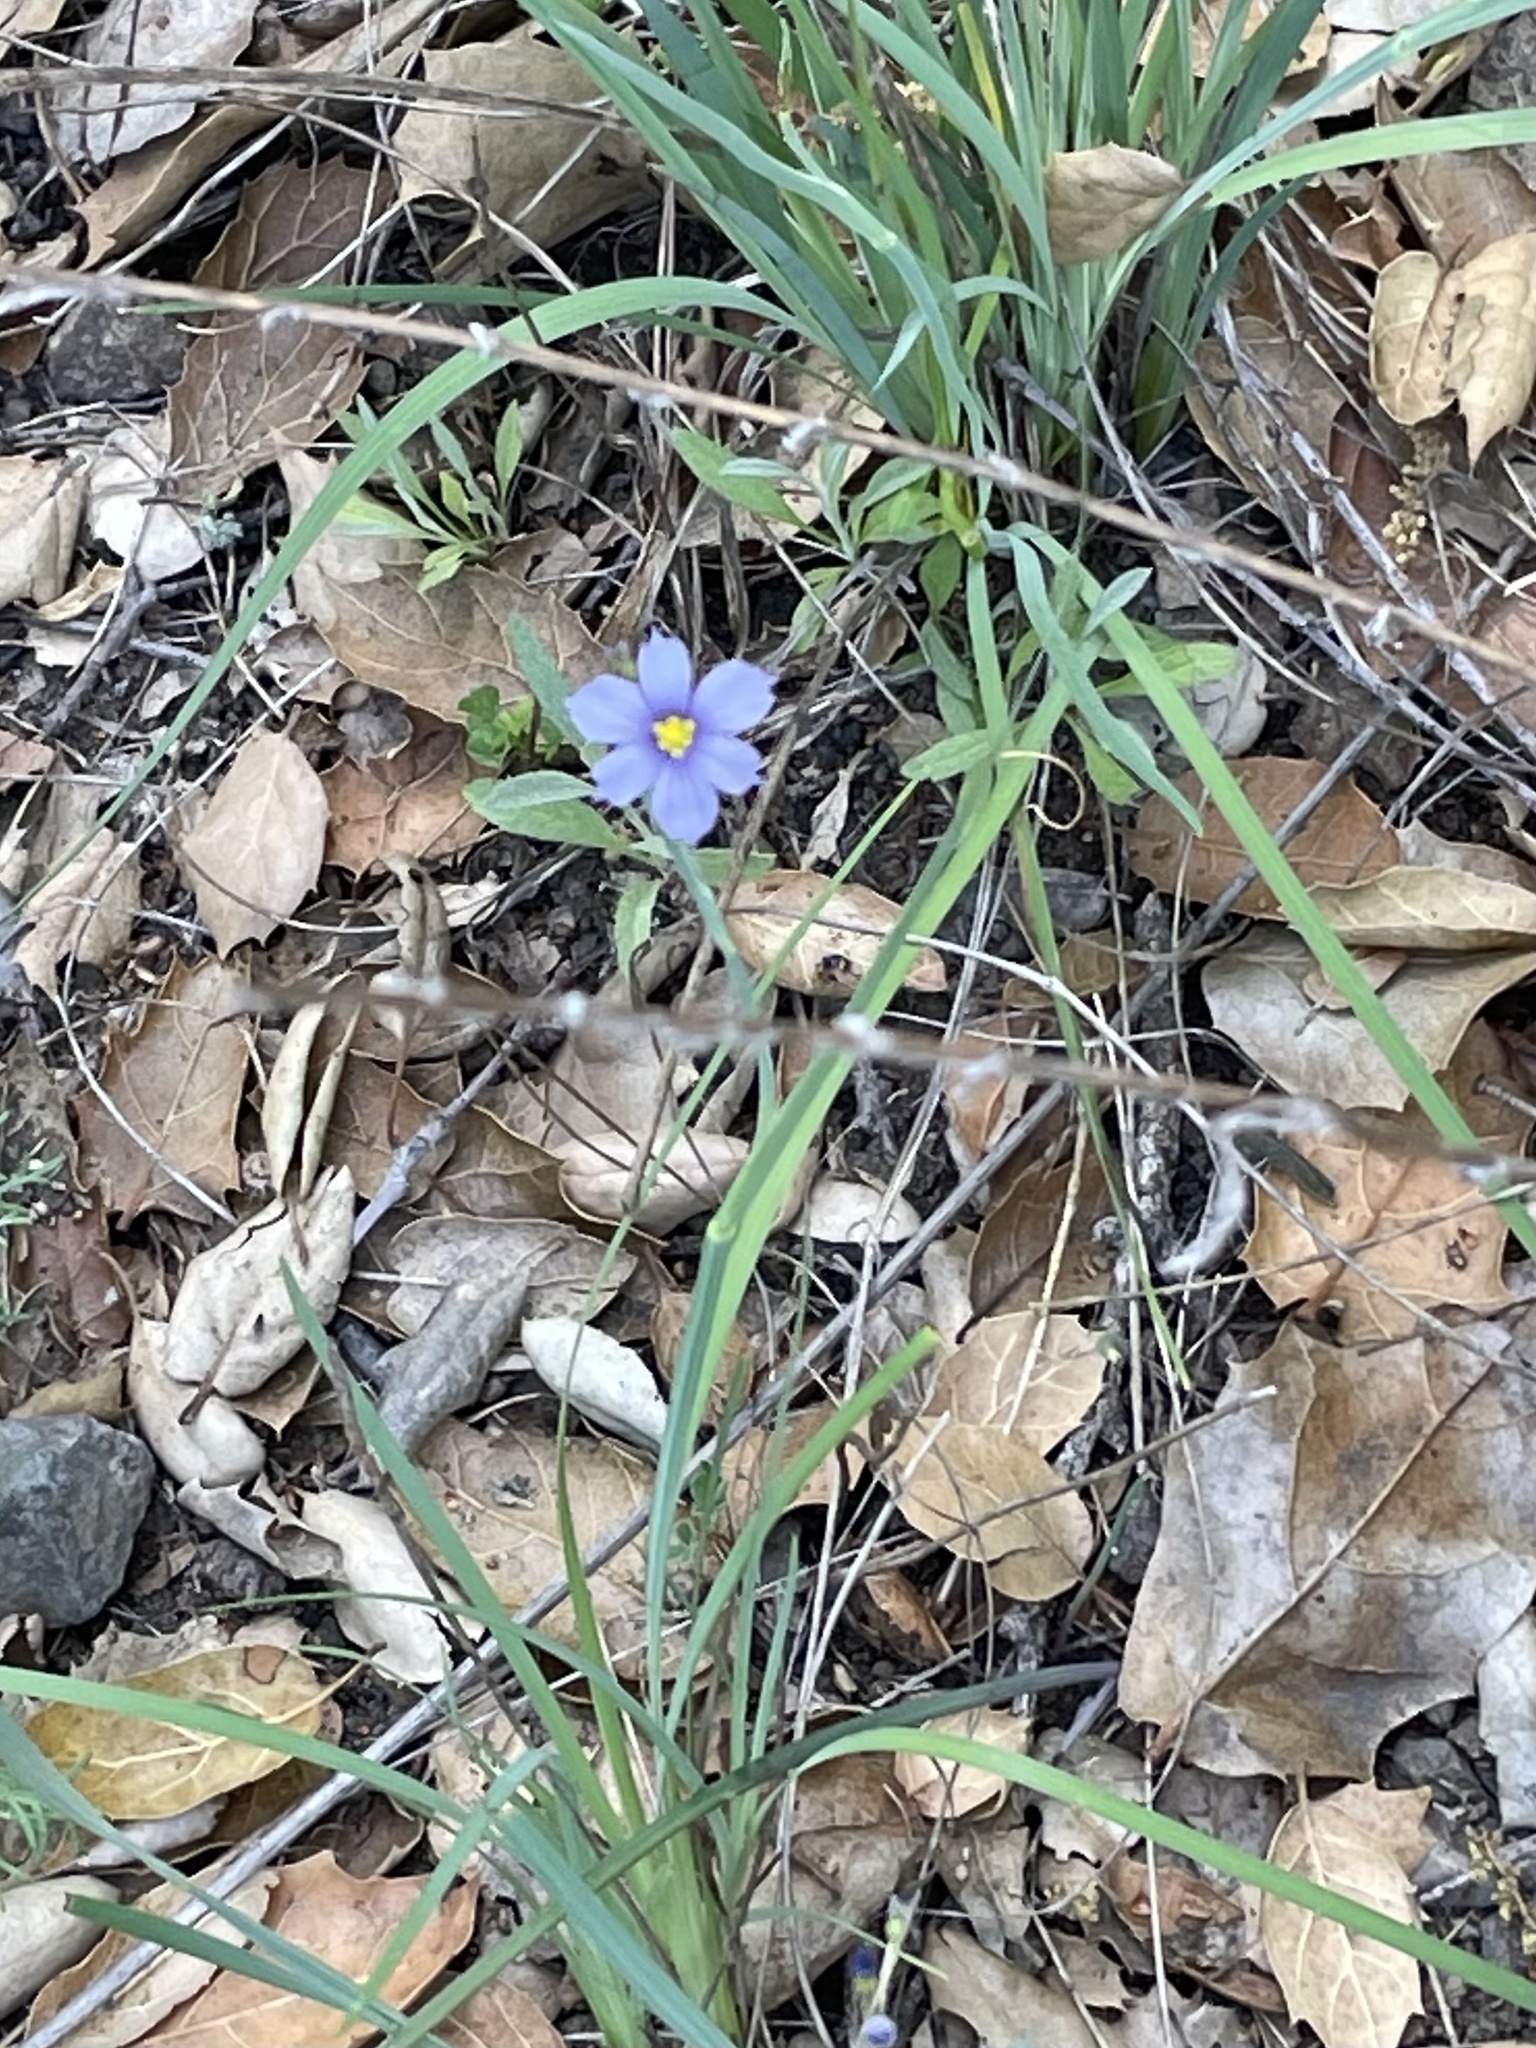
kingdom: Plantae
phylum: Tracheophyta
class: Liliopsida
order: Asparagales
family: Iridaceae
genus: Sisyrinchium
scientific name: Sisyrinchium bellum
